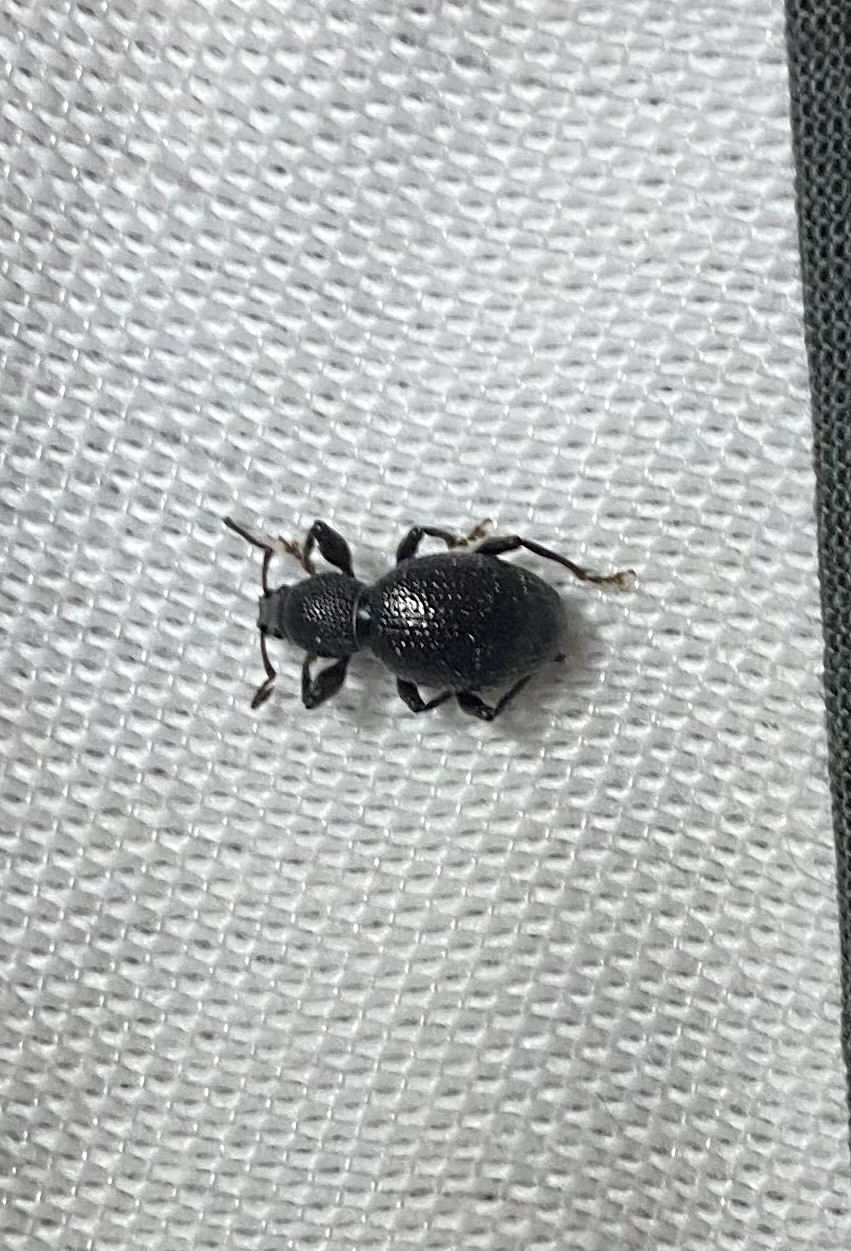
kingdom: Animalia
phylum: Arthropoda
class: Insecta
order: Coleoptera
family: Curculionidae
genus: Otiorhynchus
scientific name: Otiorhynchus ovalipennis
